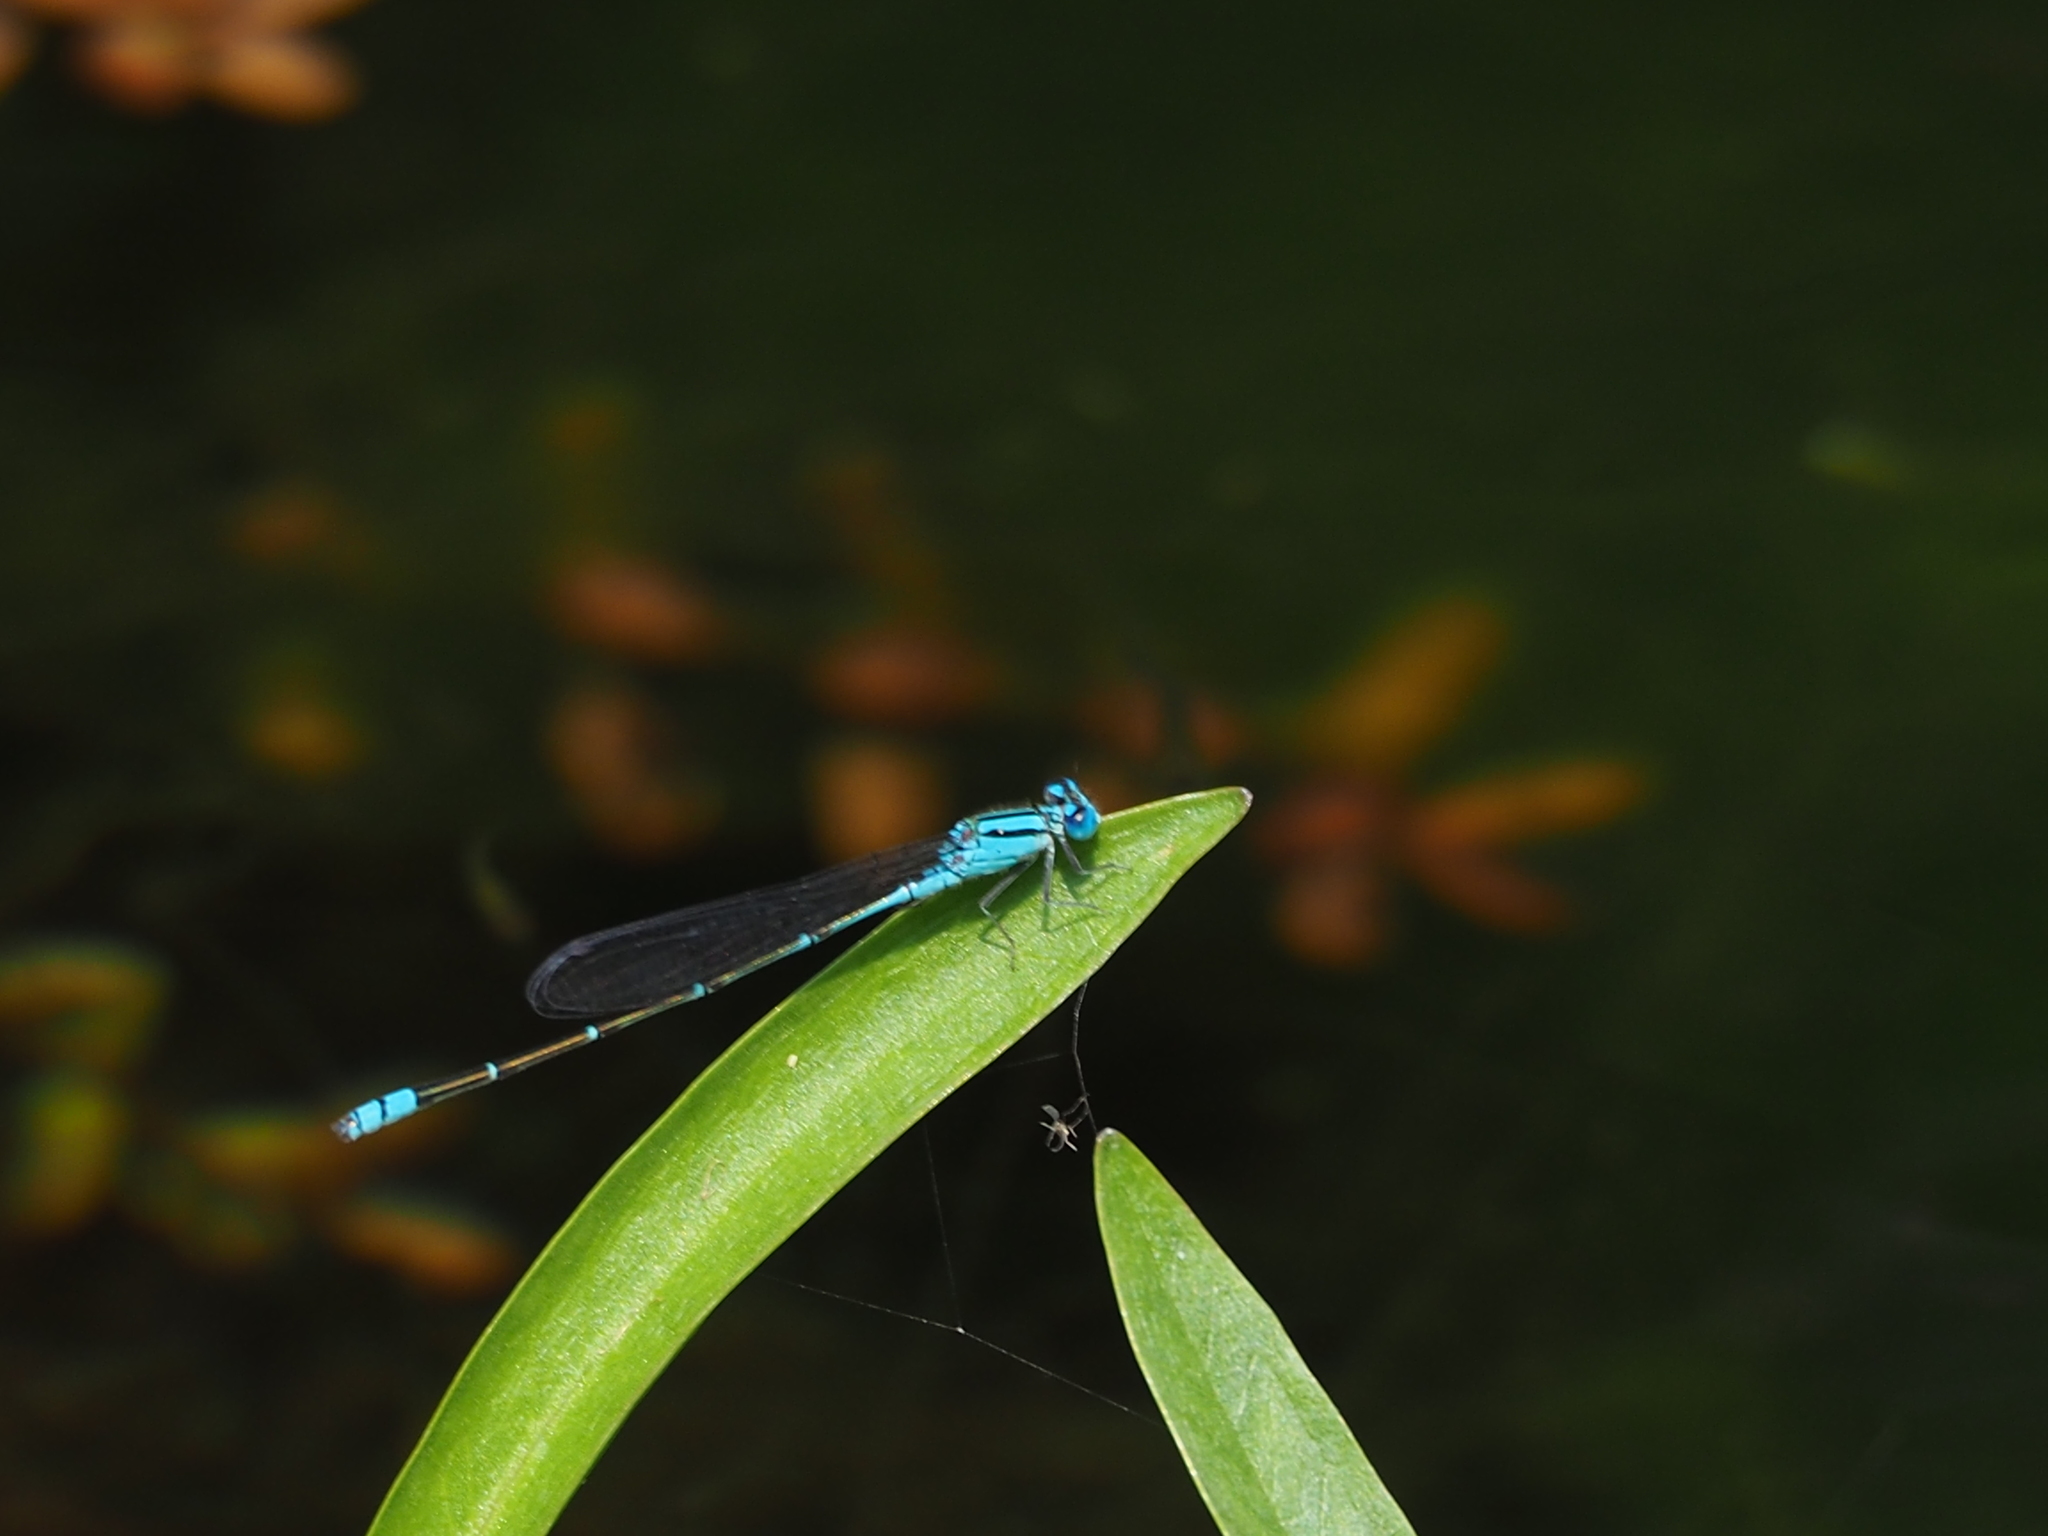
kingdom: Animalia
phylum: Arthropoda
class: Insecta
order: Odonata
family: Coenagrionidae
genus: Pseudagrion
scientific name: Pseudagrion microcephalum
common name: Blue riverdamsel
